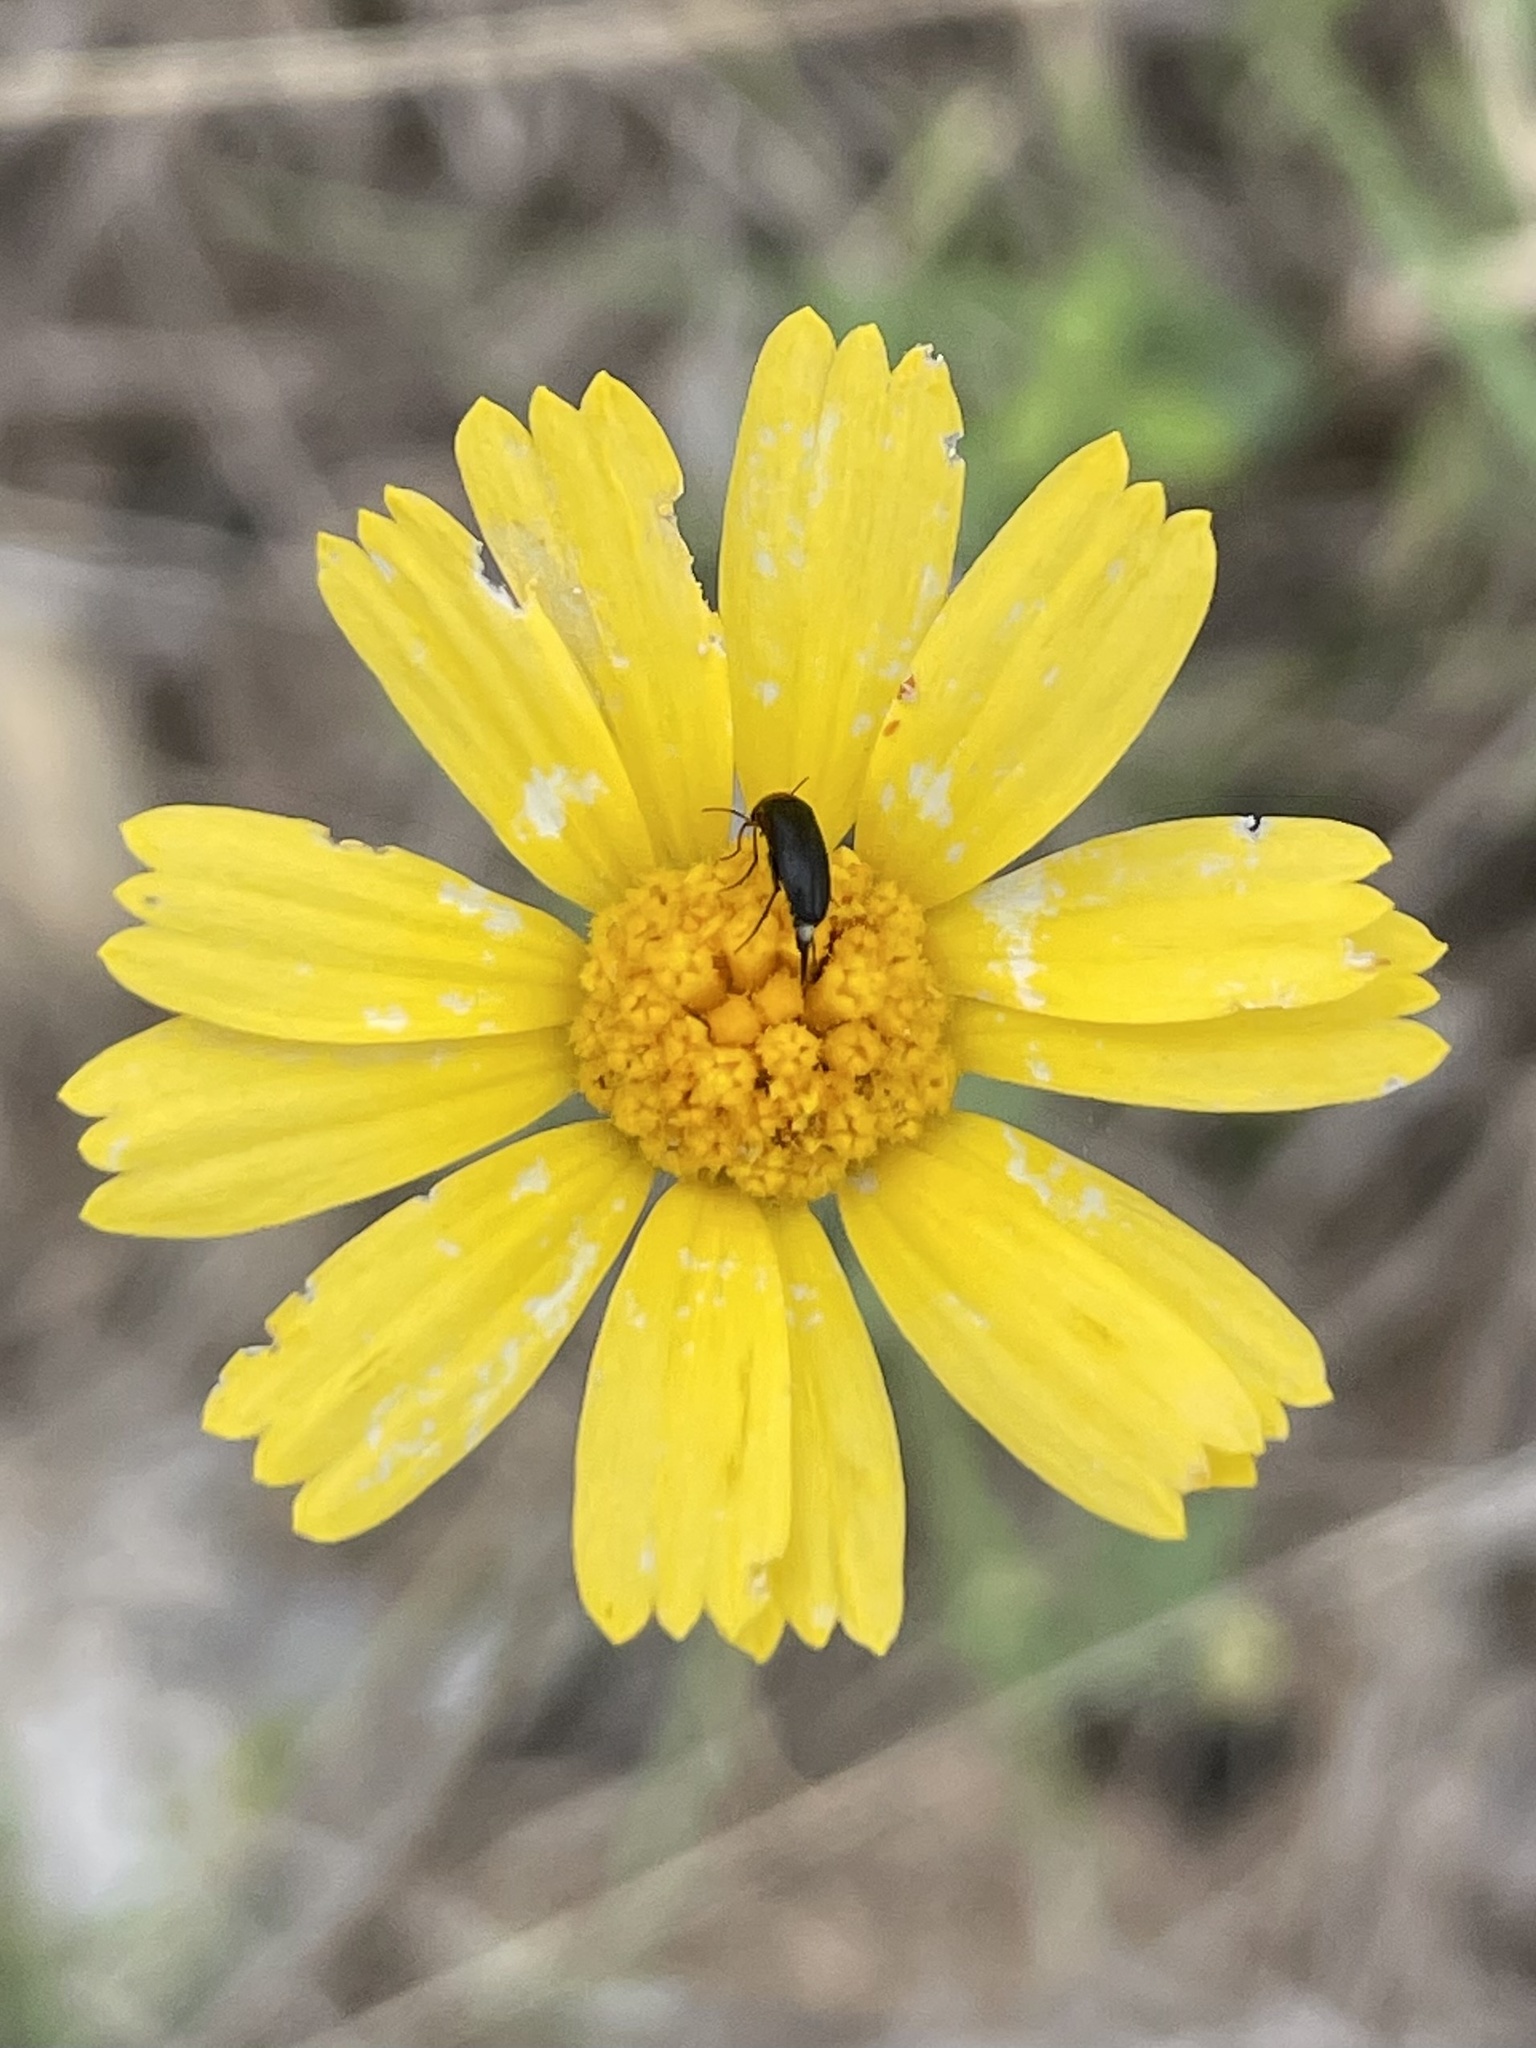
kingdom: Plantae
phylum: Tracheophyta
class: Magnoliopsida
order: Asterales
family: Asteraceae
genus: Tetraneuris
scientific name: Tetraneuris scaposa
